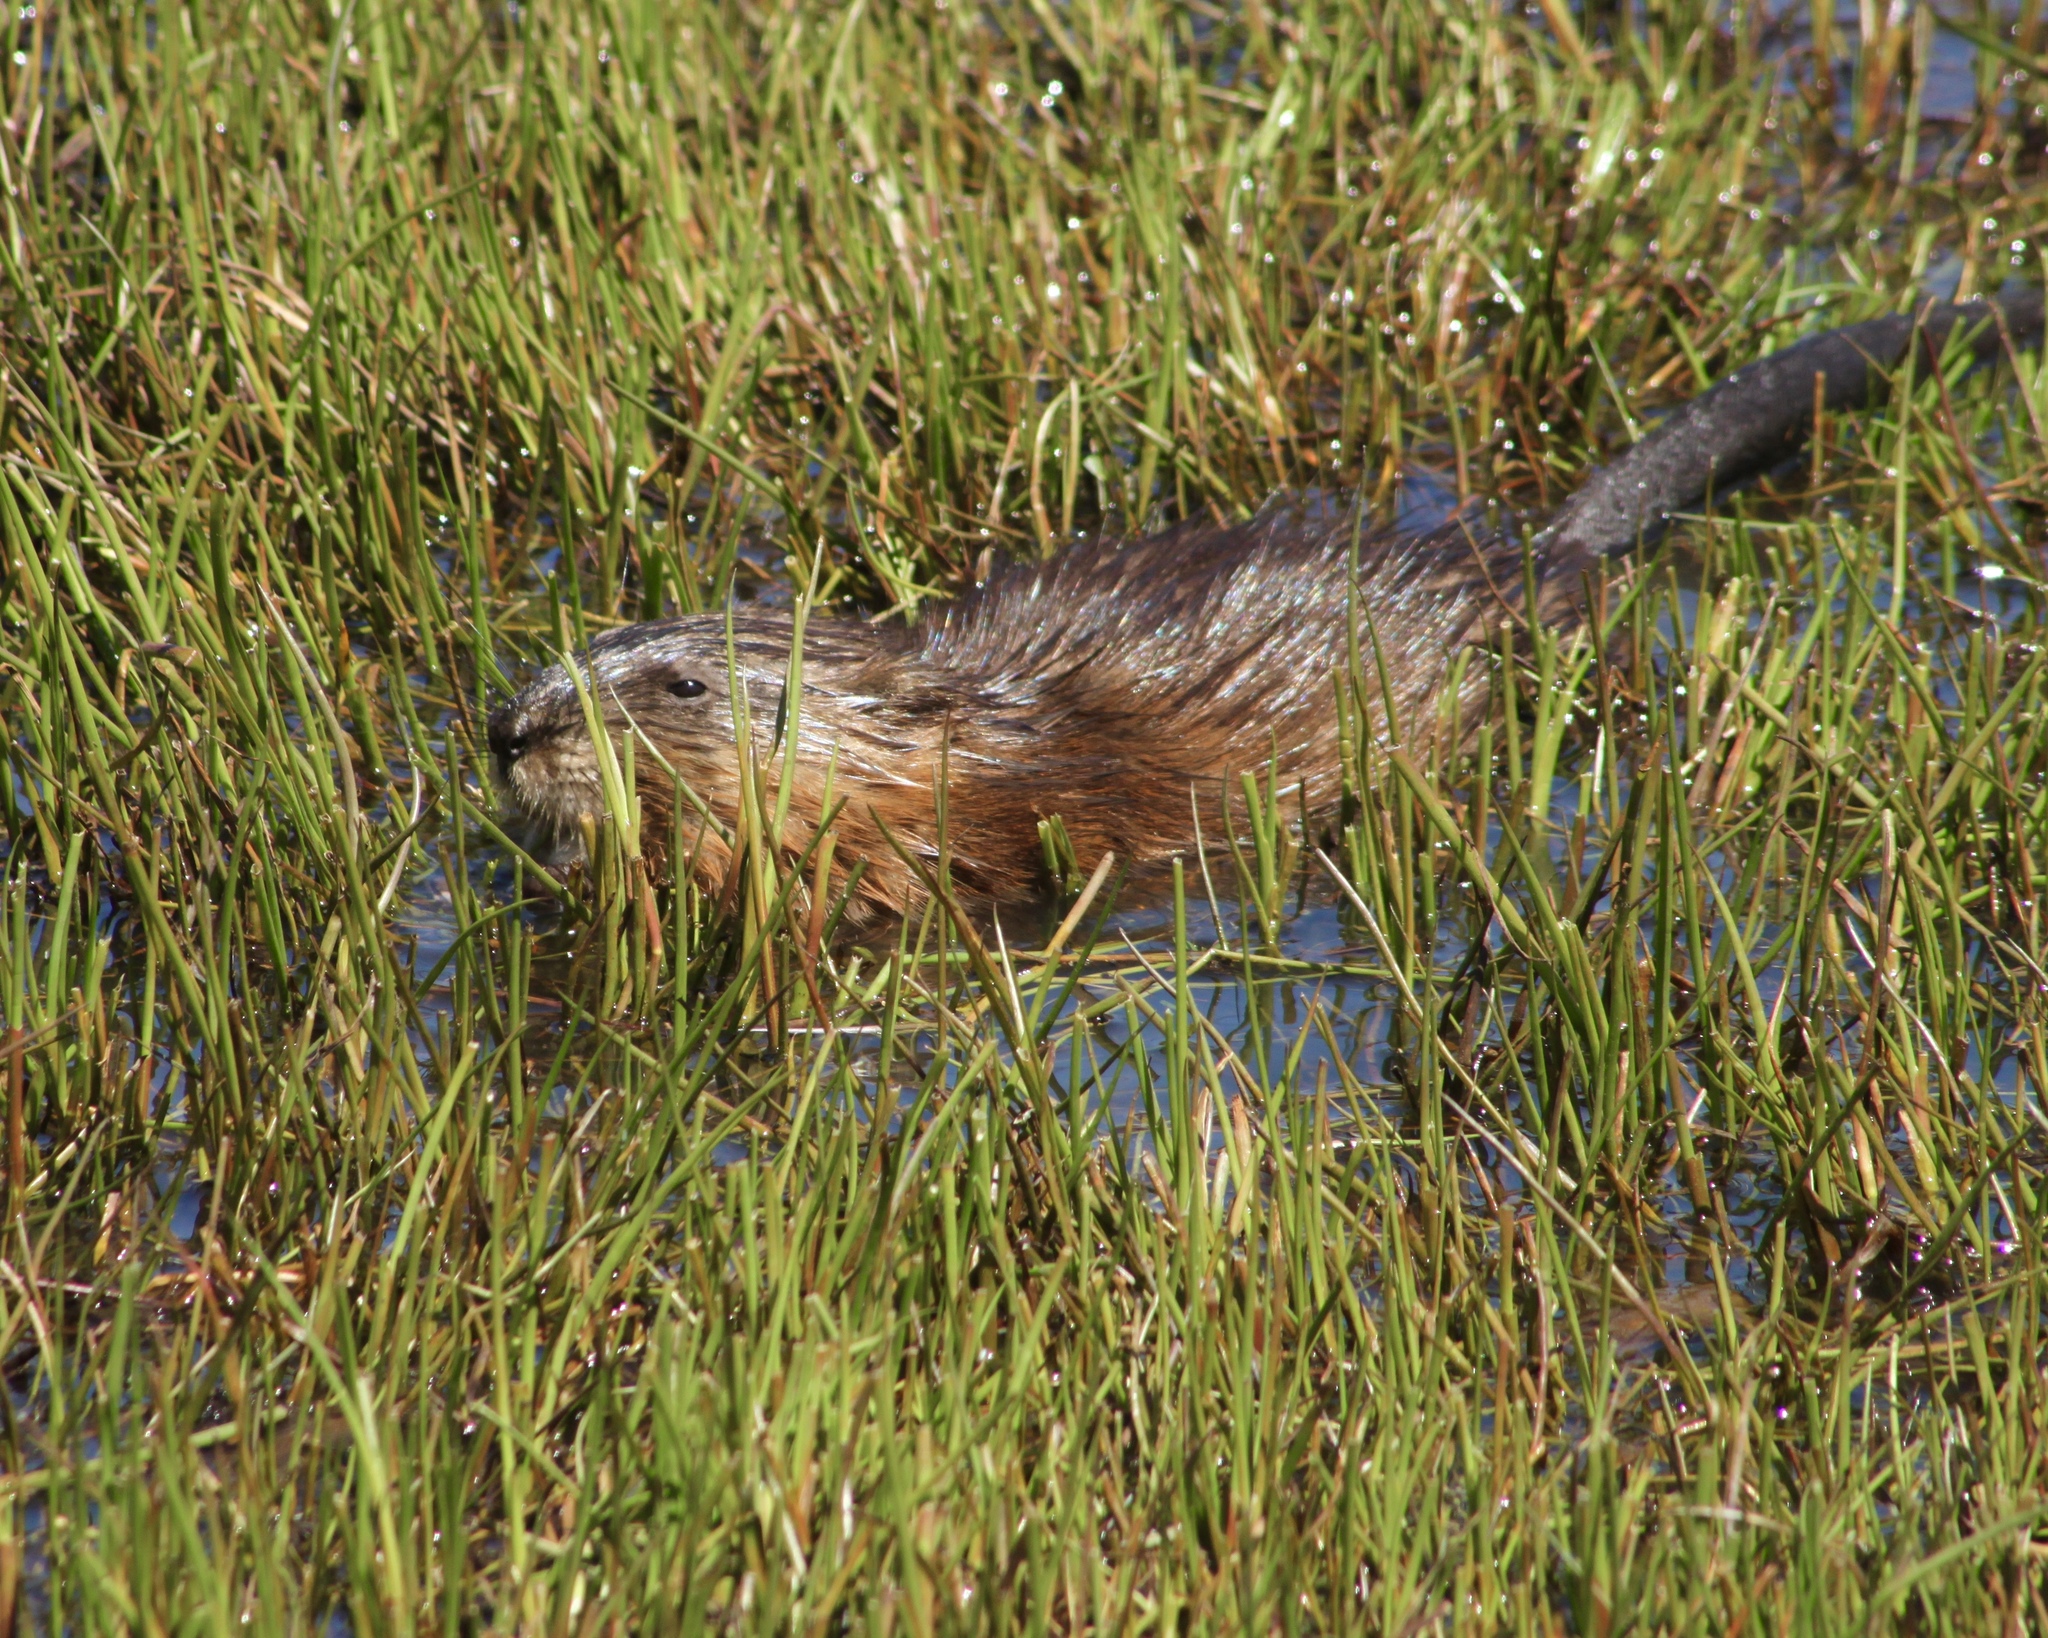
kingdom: Animalia
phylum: Chordata
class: Mammalia
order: Rodentia
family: Cricetidae
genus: Ondatra
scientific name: Ondatra zibethicus
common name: Muskrat
